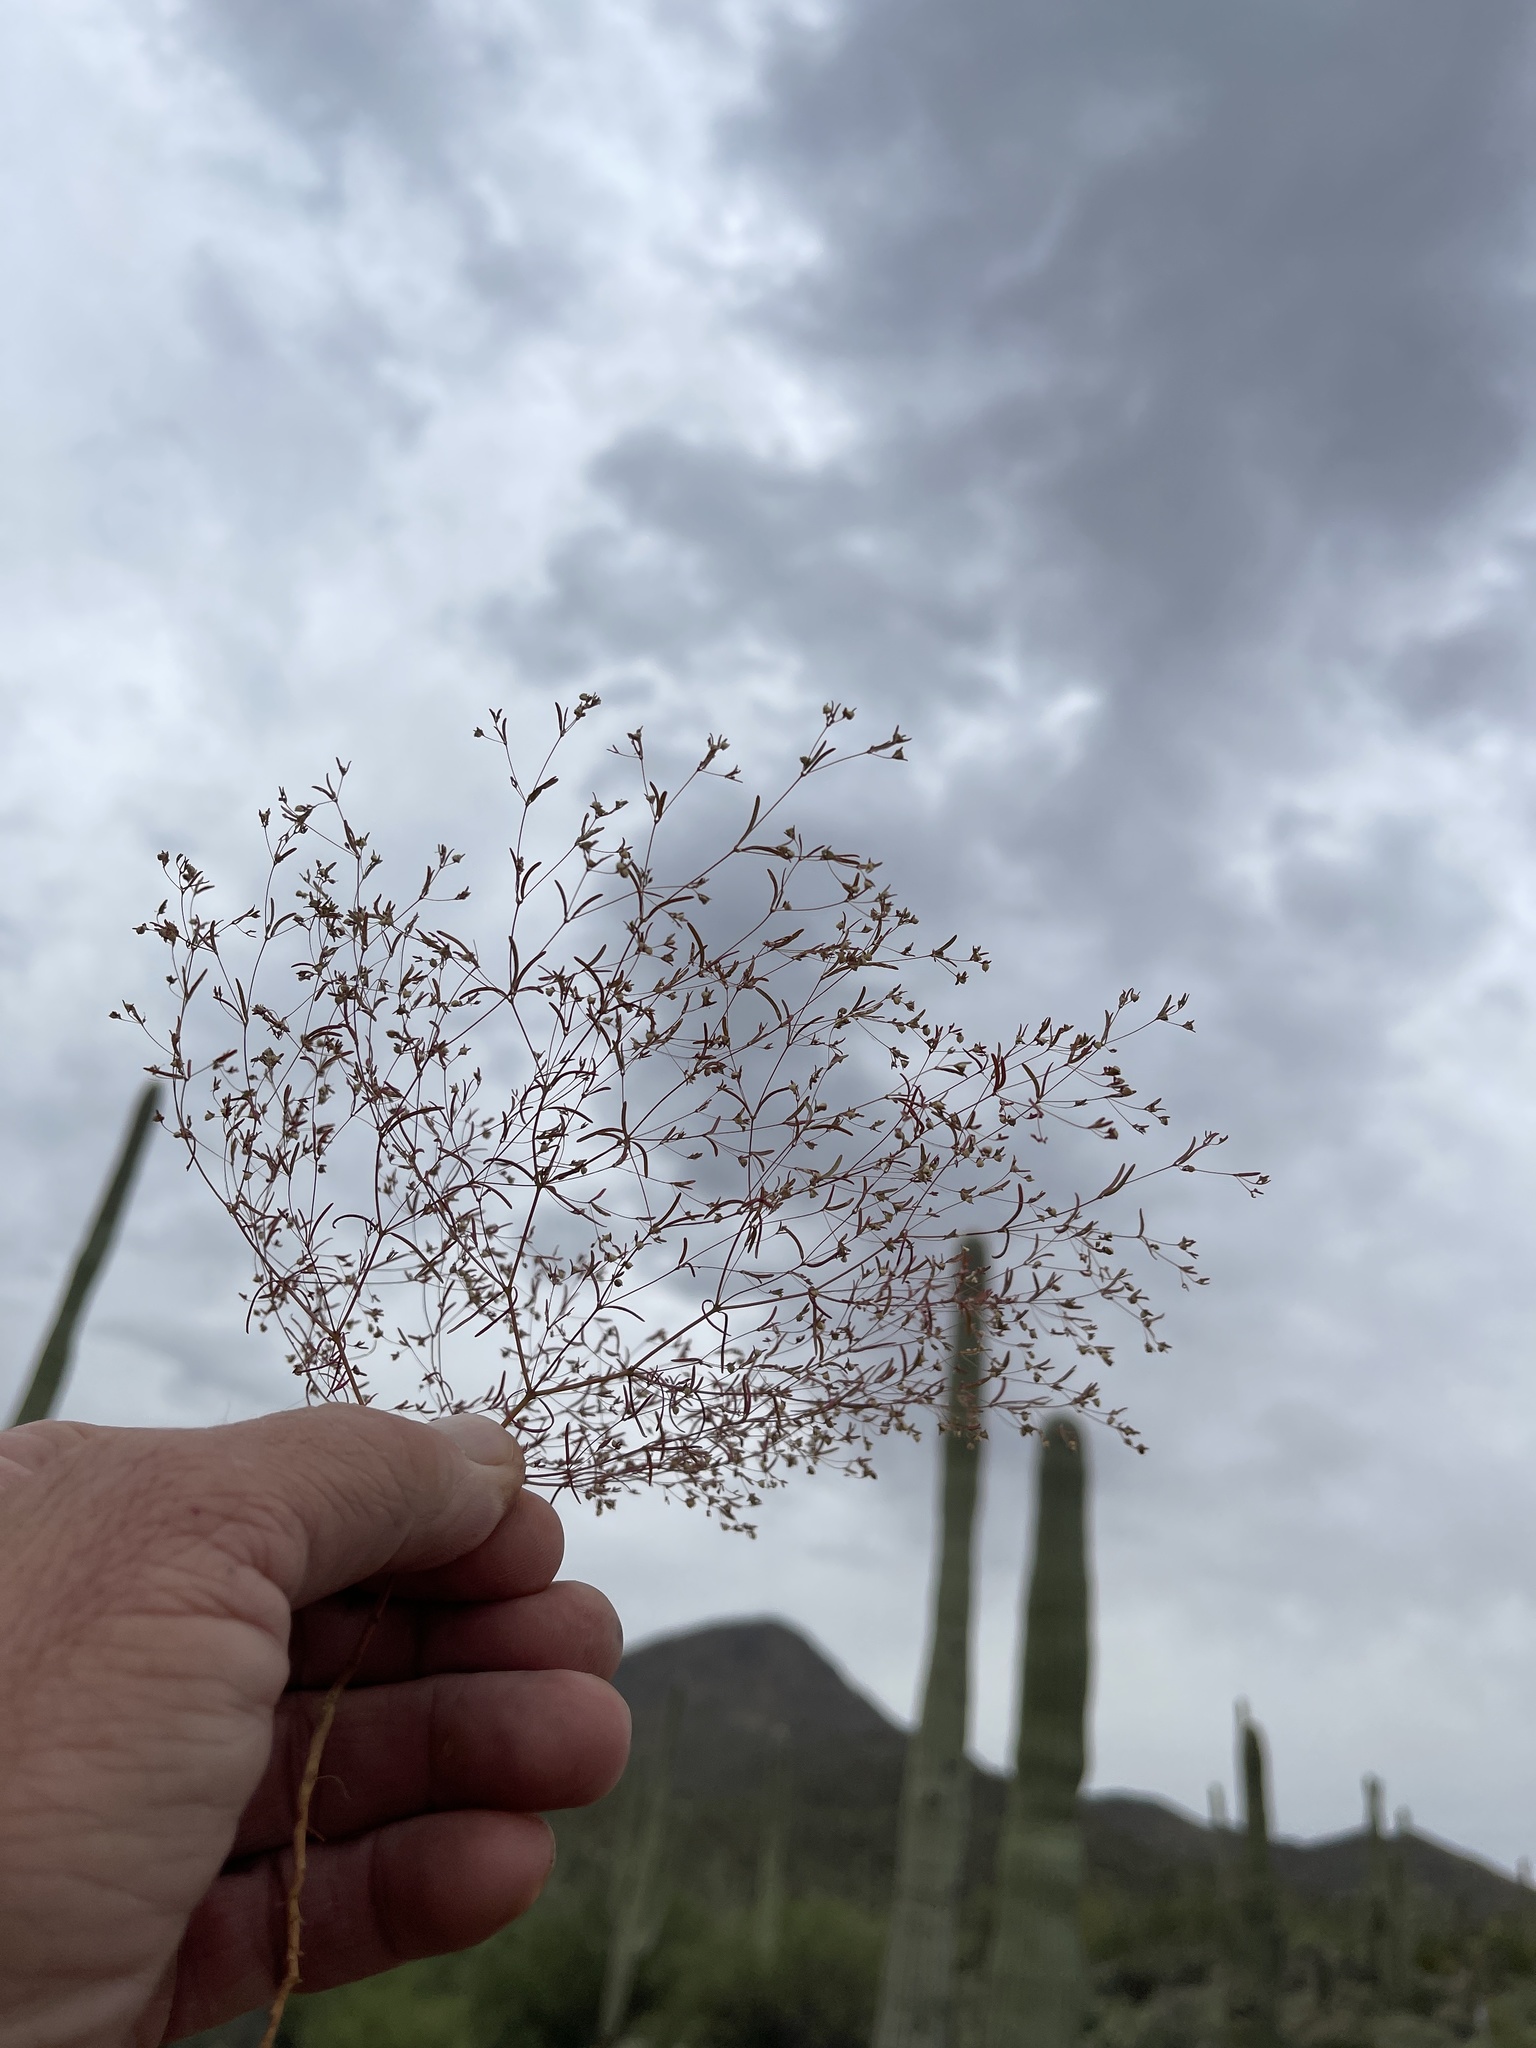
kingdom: Plantae
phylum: Tracheophyta
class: Magnoliopsida
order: Malpighiales
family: Euphorbiaceae
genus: Euphorbia
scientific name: Euphorbia gracillima
